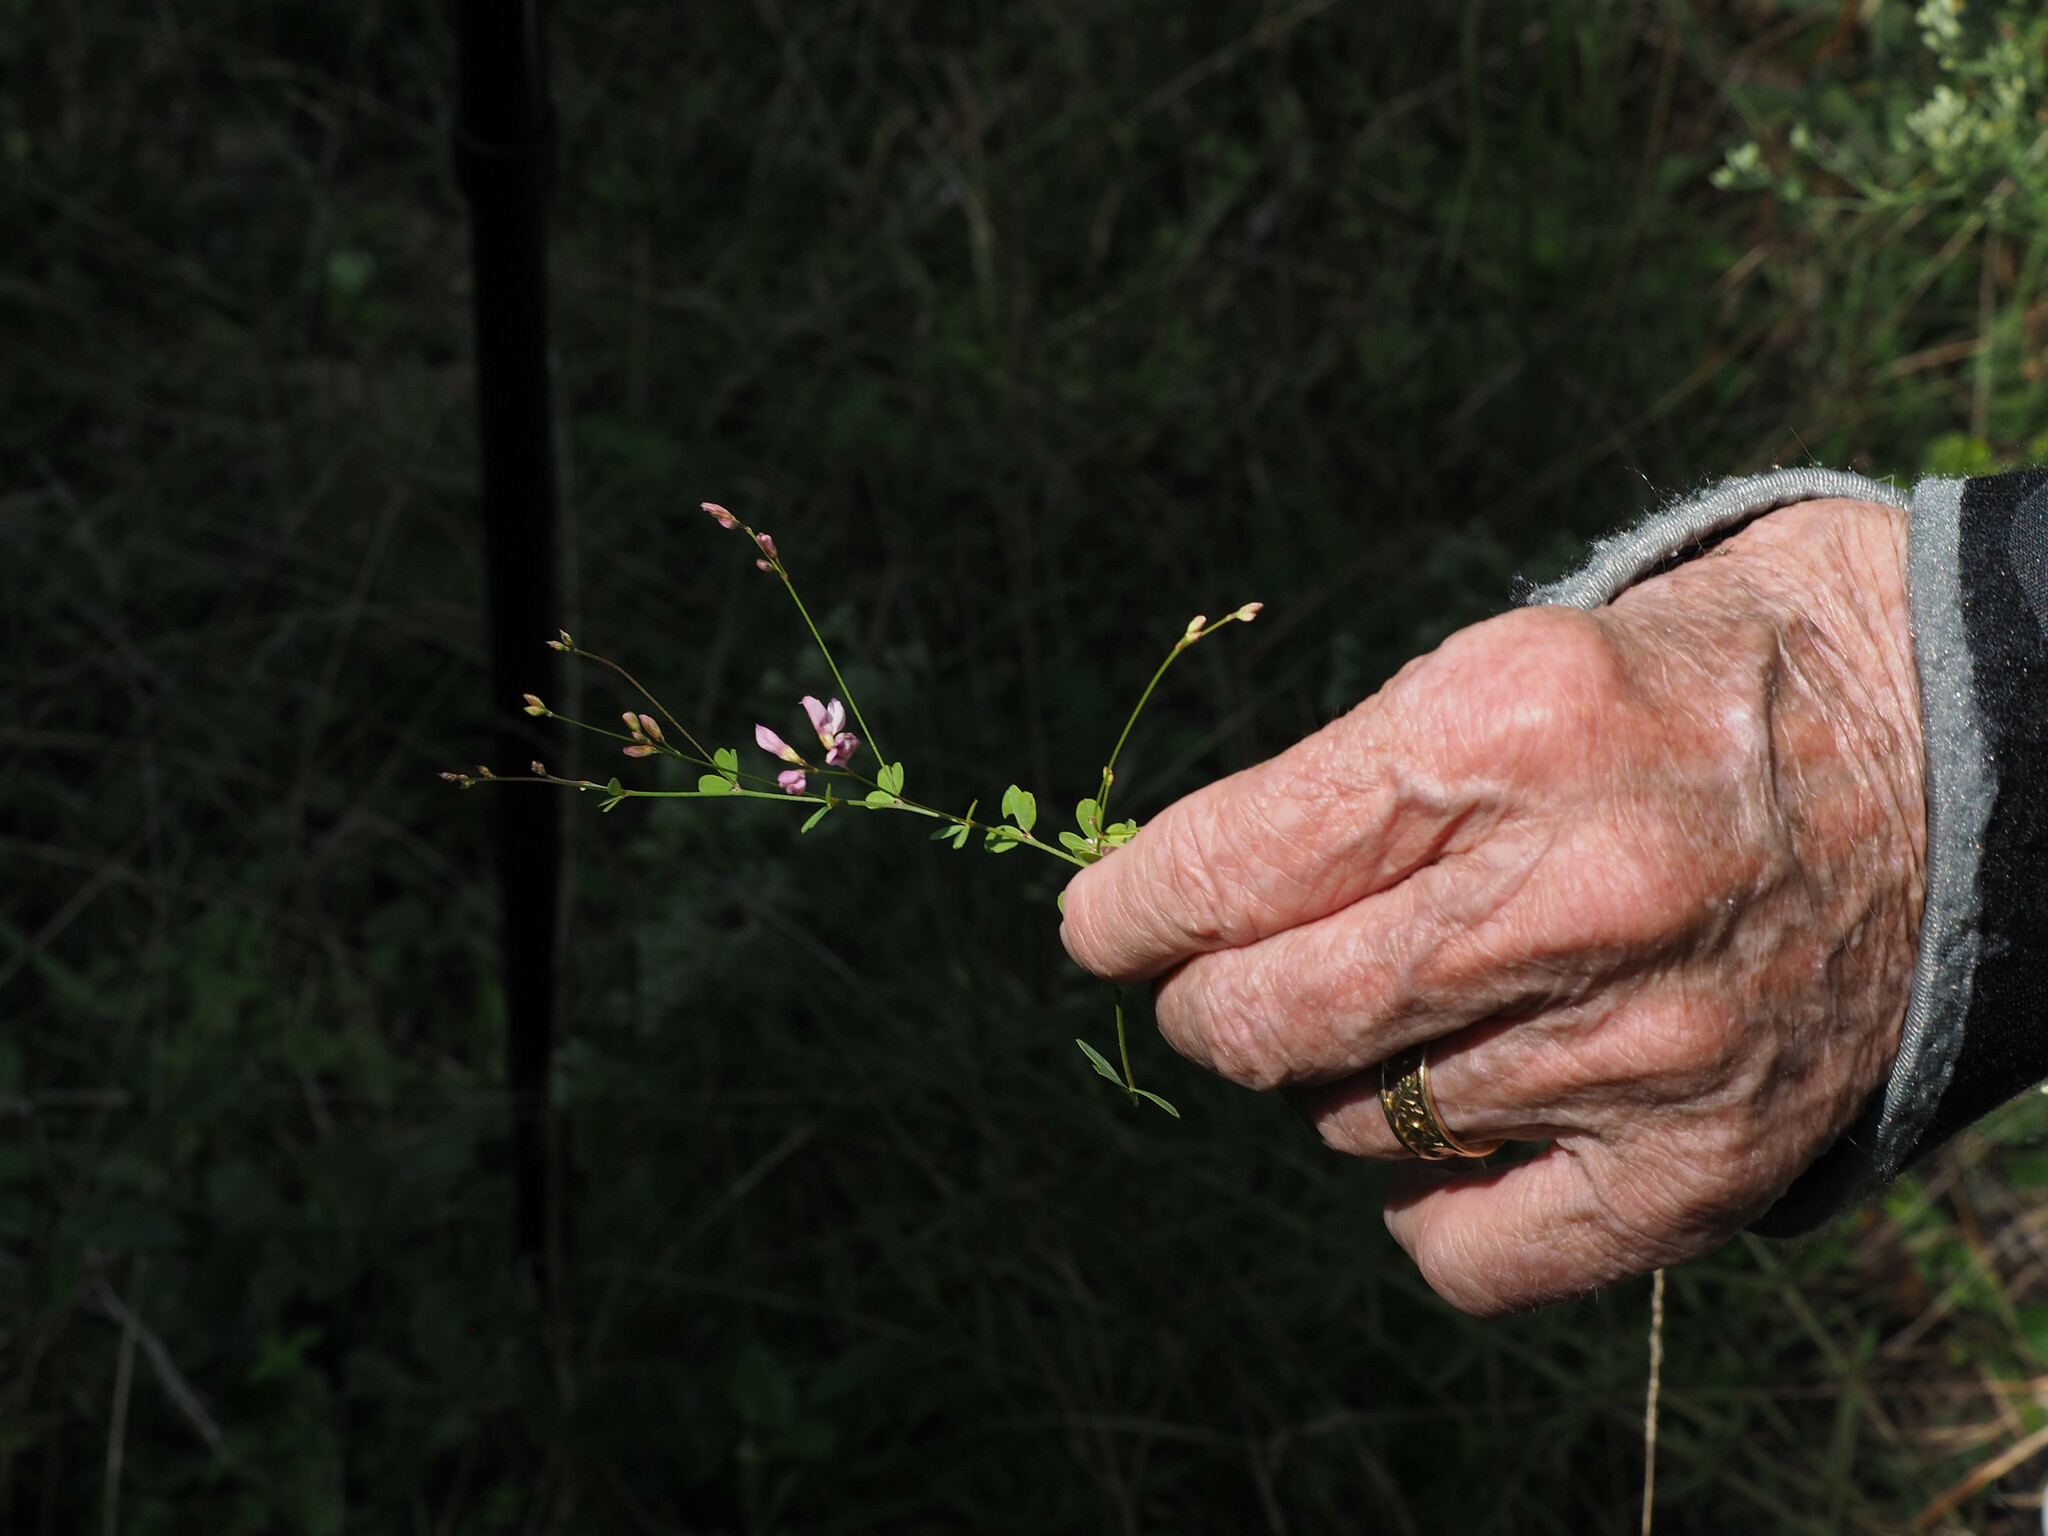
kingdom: Plantae
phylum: Tracheophyta
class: Magnoliopsida
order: Fabales
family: Fabaceae
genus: Lespedeza
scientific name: Lespedeza repens
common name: Creeping bush-clover
